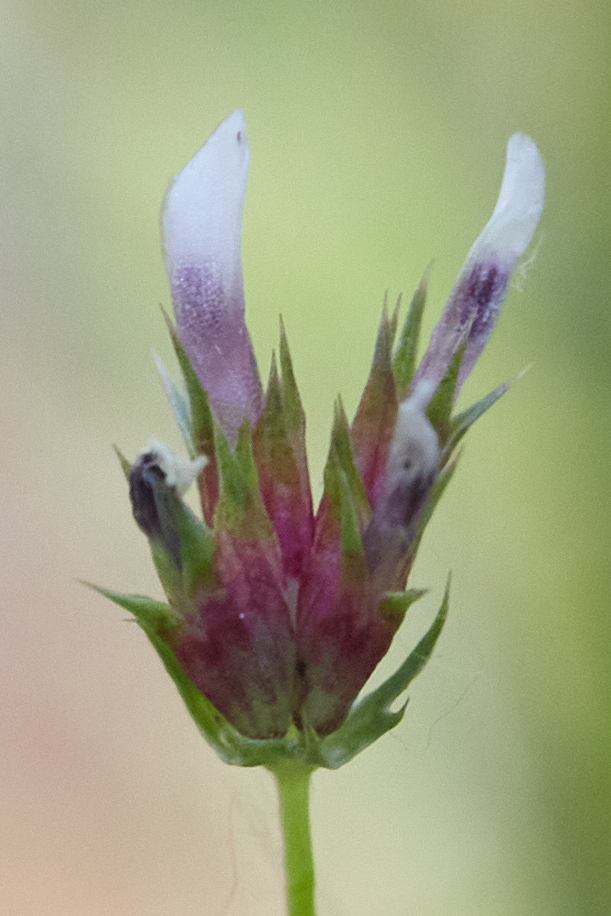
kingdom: Plantae
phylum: Tracheophyta
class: Magnoliopsida
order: Fabales
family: Fabaceae
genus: Trifolium
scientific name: Trifolium oliganthum
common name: Few-flower clover
